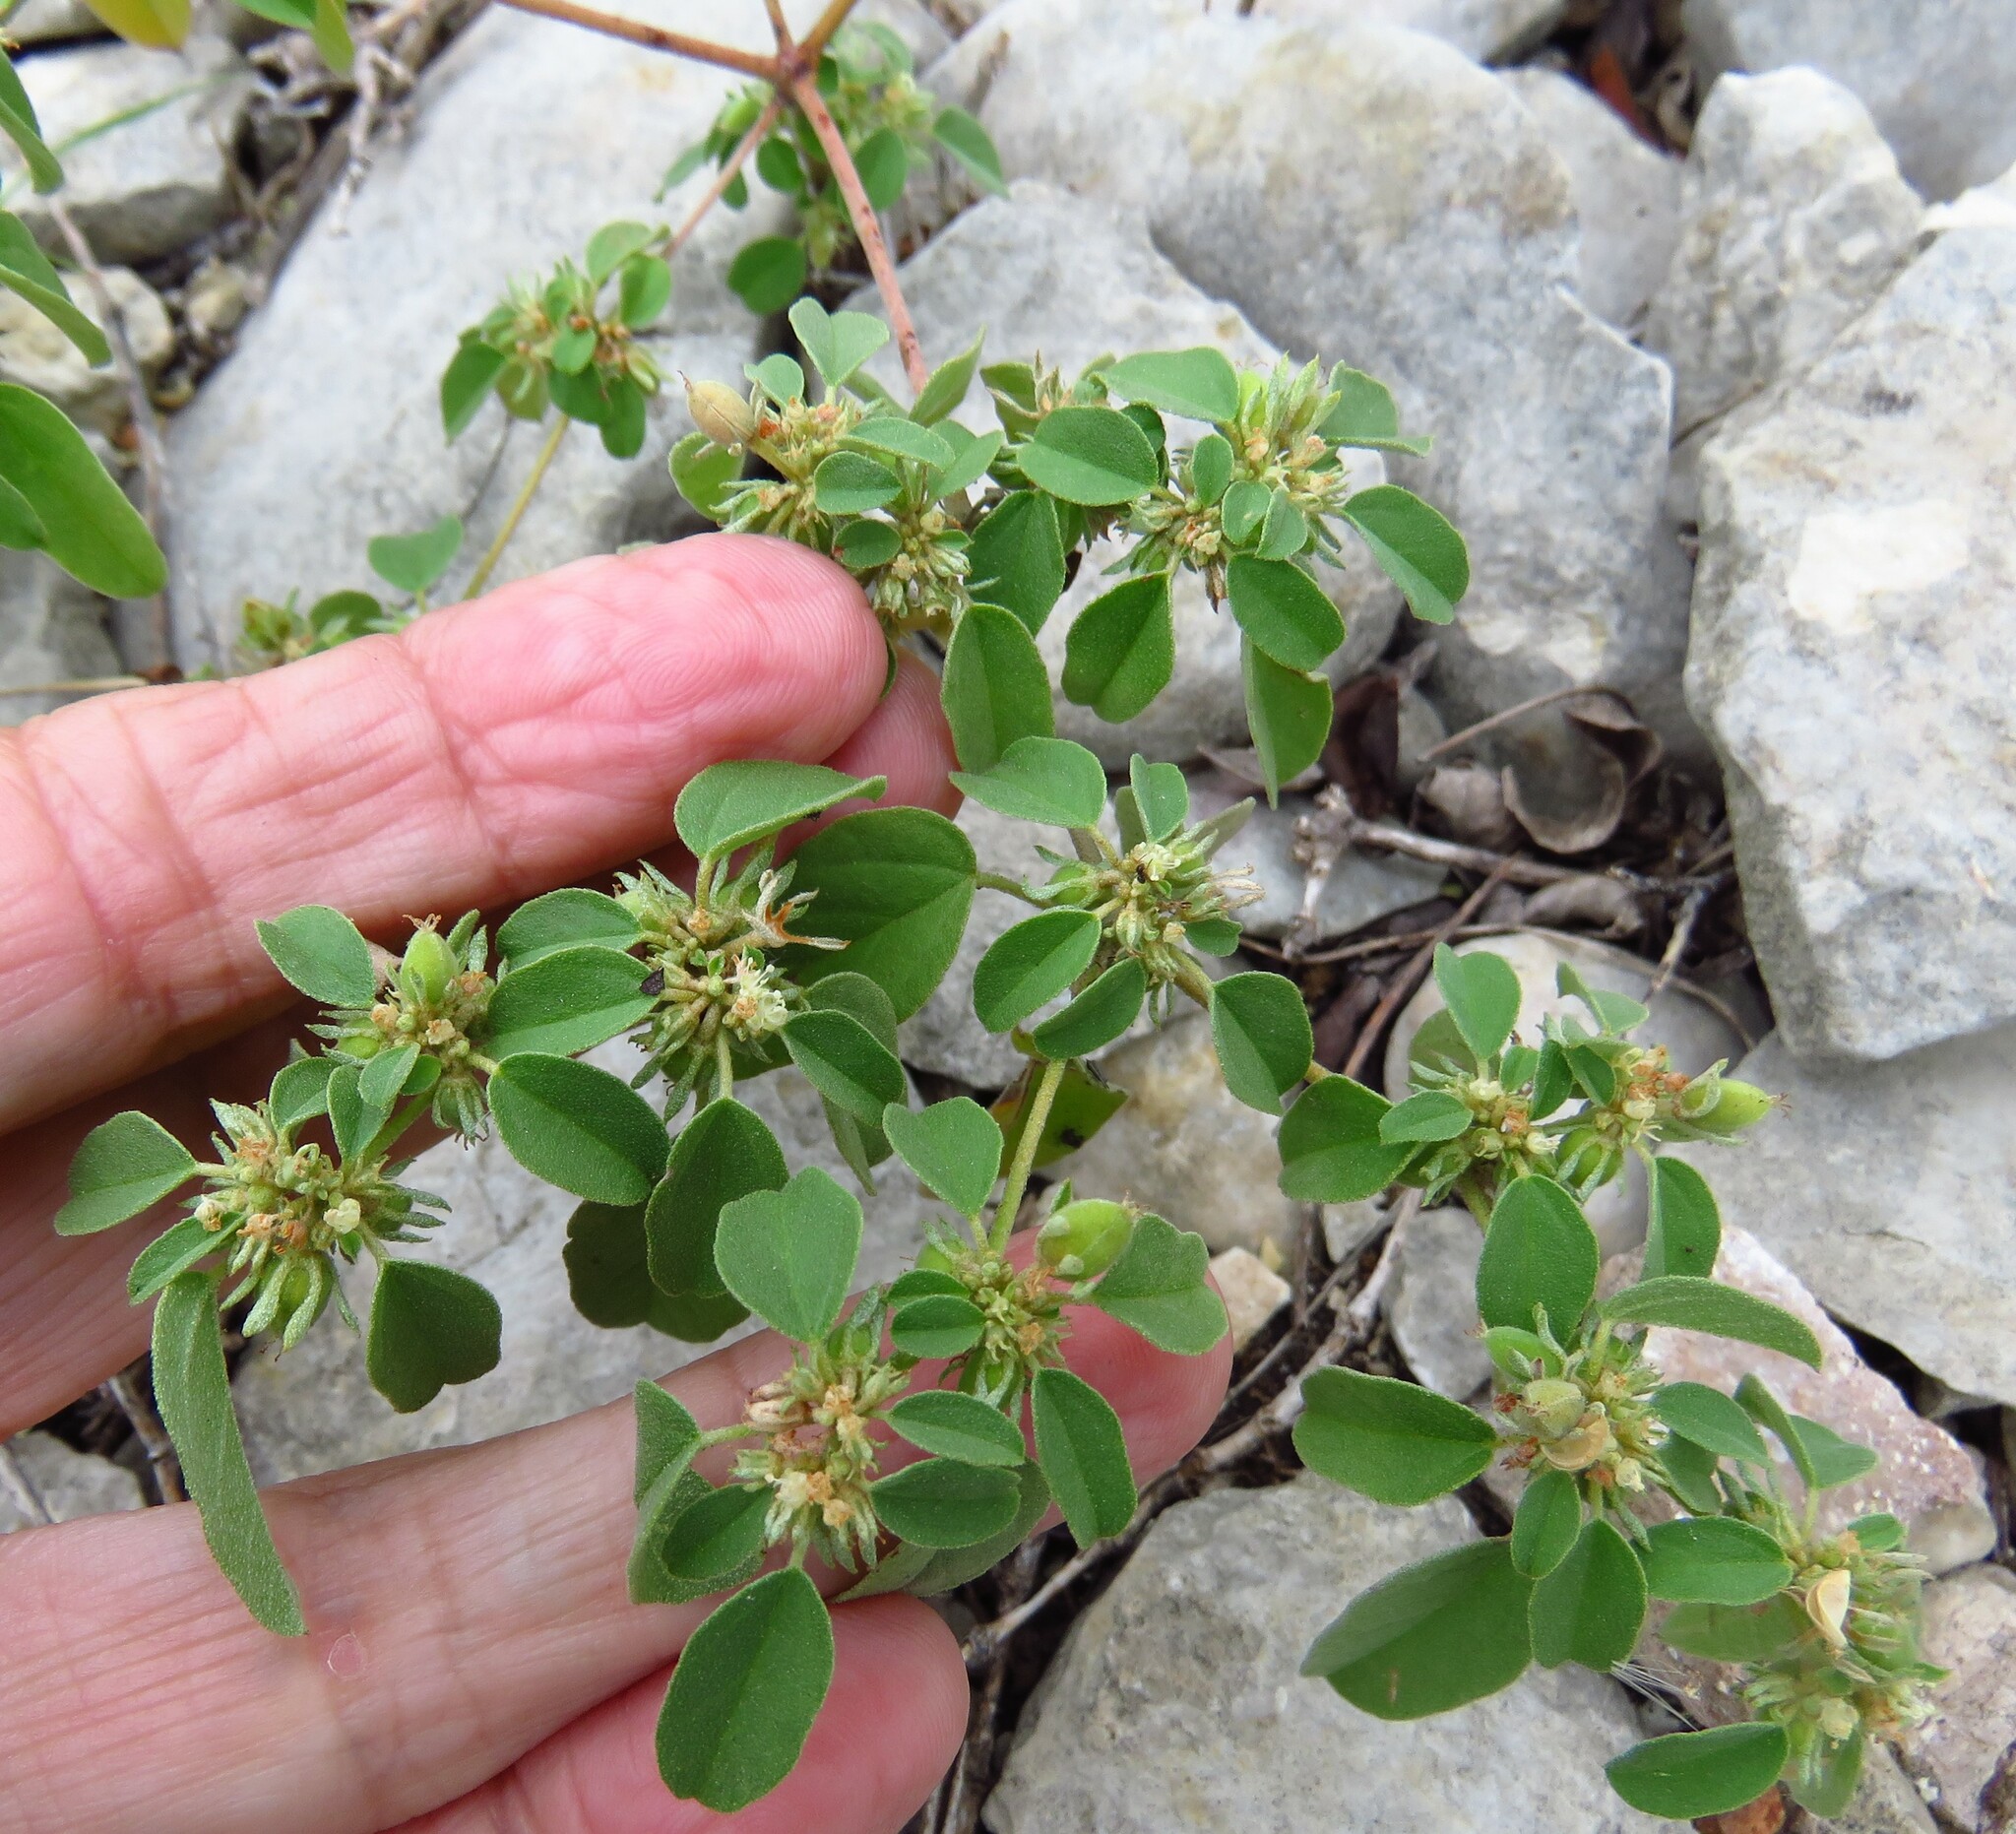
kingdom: Plantae
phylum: Tracheophyta
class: Magnoliopsida
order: Malpighiales
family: Euphorbiaceae
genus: Croton
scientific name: Croton monanthogynus
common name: One-seed croton
